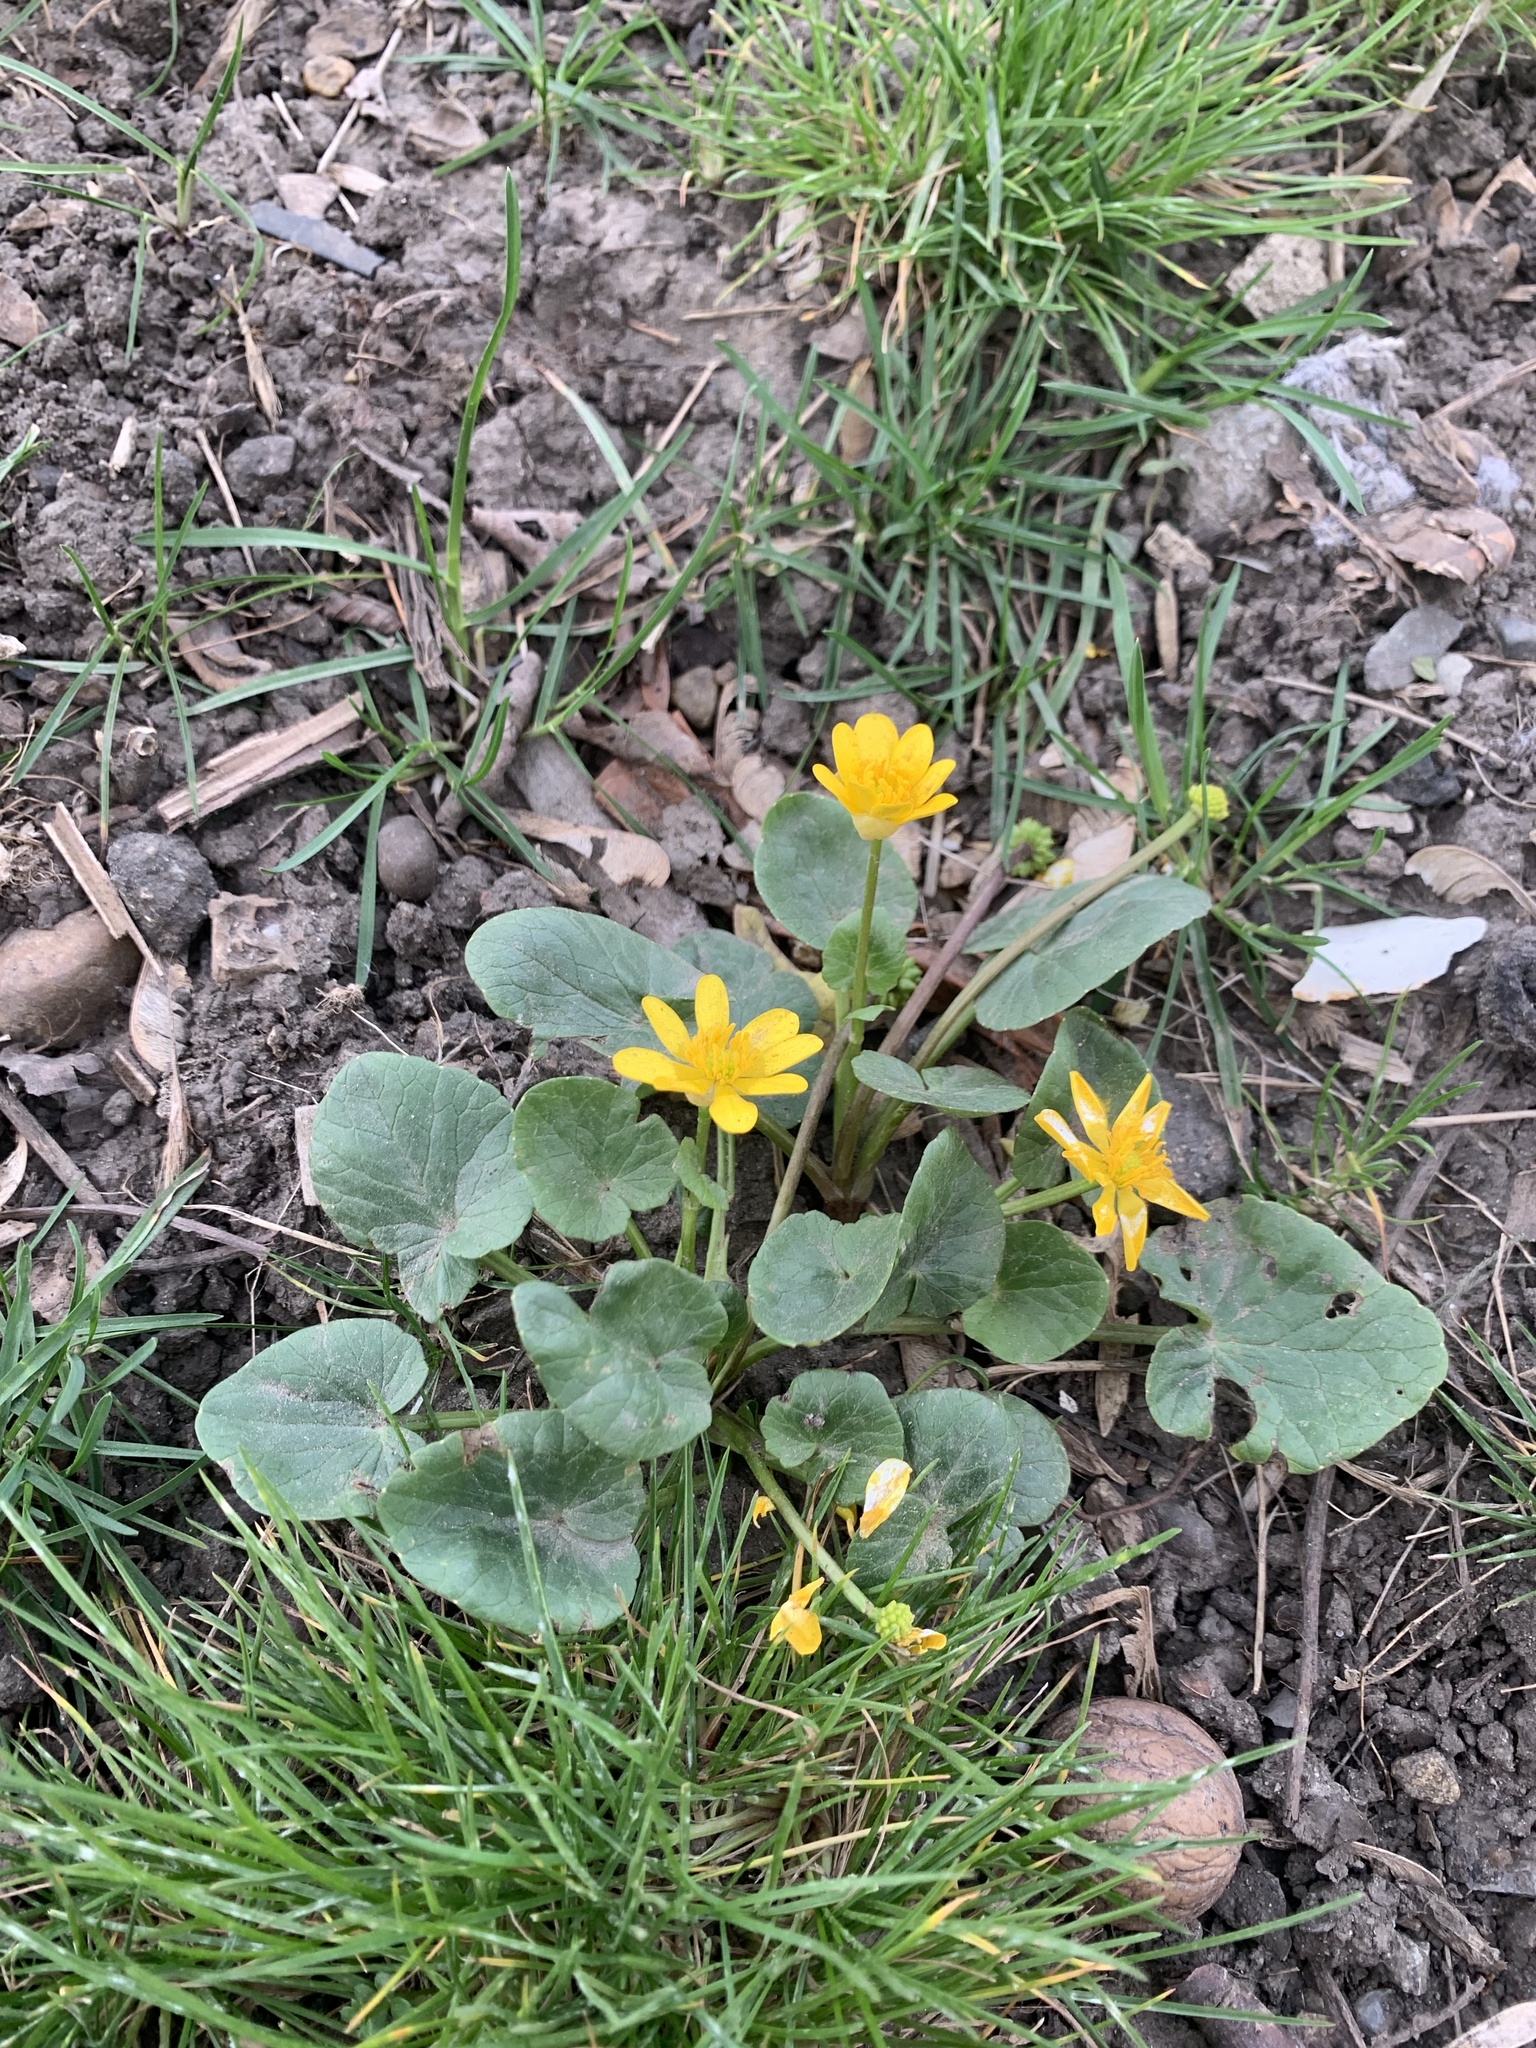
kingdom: Plantae
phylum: Tracheophyta
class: Magnoliopsida
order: Ranunculales
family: Ranunculaceae
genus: Ficaria
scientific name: Ficaria verna
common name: Lesser celandine
